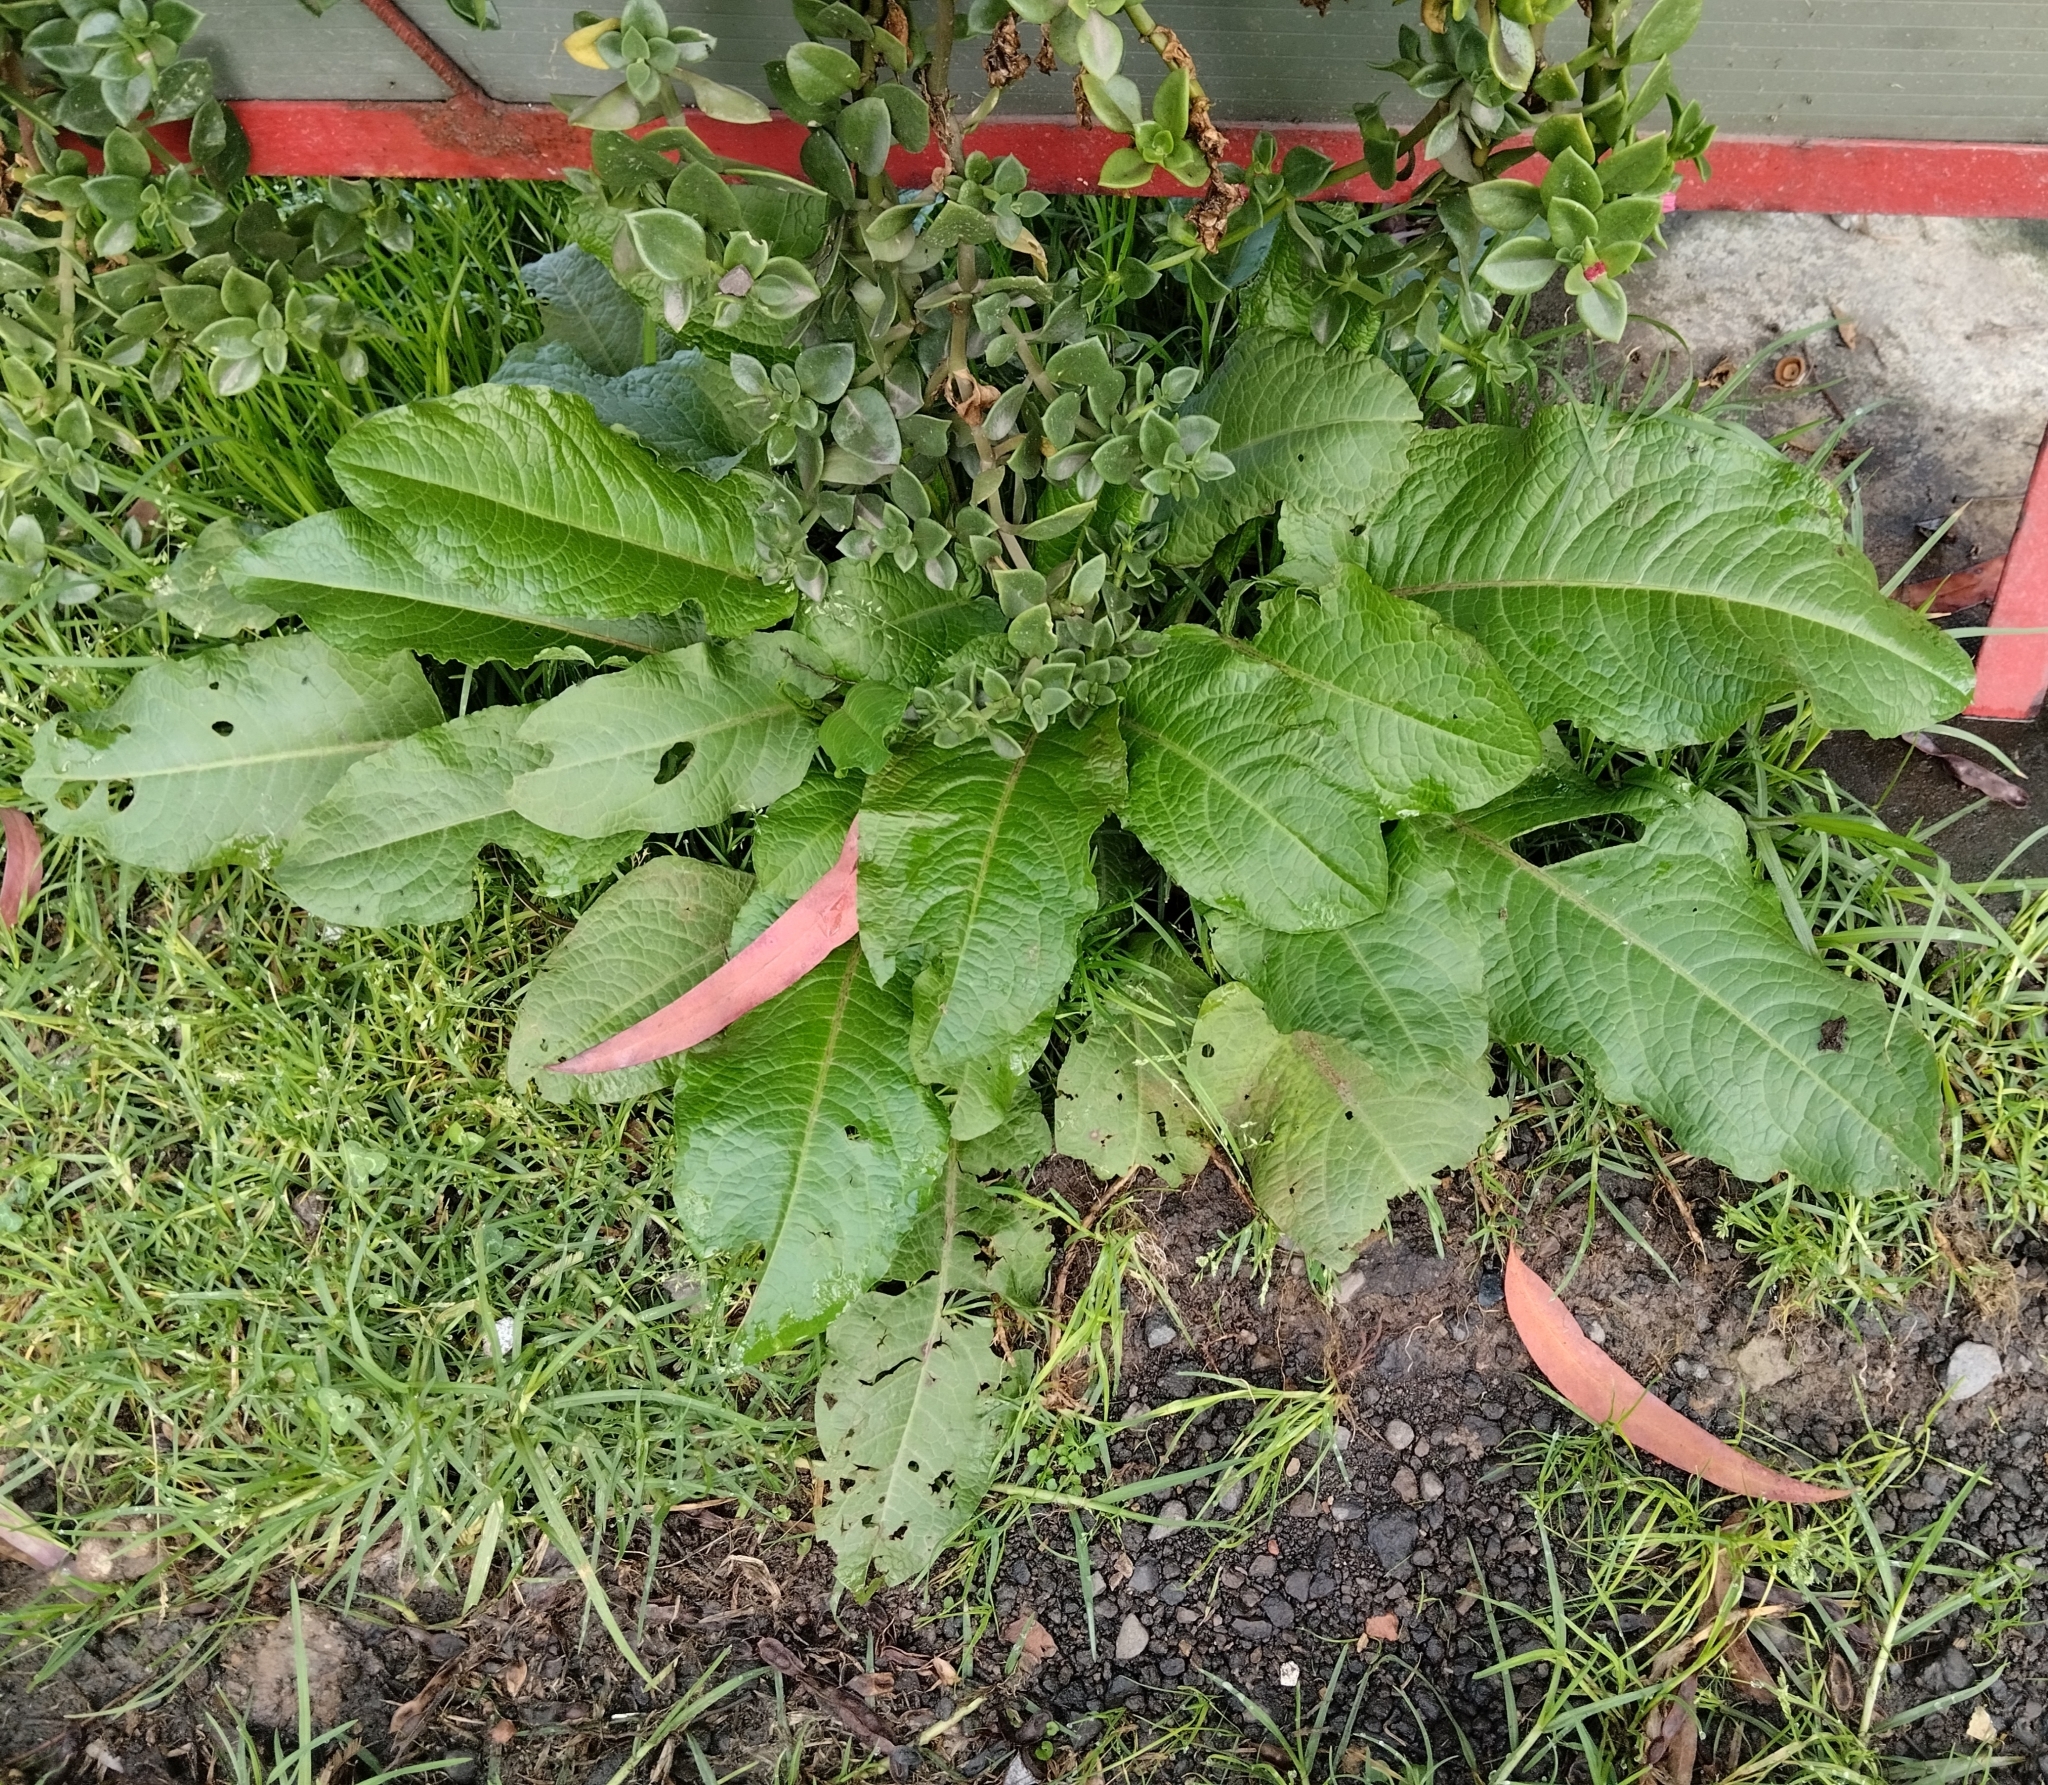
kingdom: Plantae
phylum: Tracheophyta
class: Magnoliopsida
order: Caryophyllales
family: Polygonaceae
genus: Rumex
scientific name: Rumex obtusifolius
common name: Bitter dock
